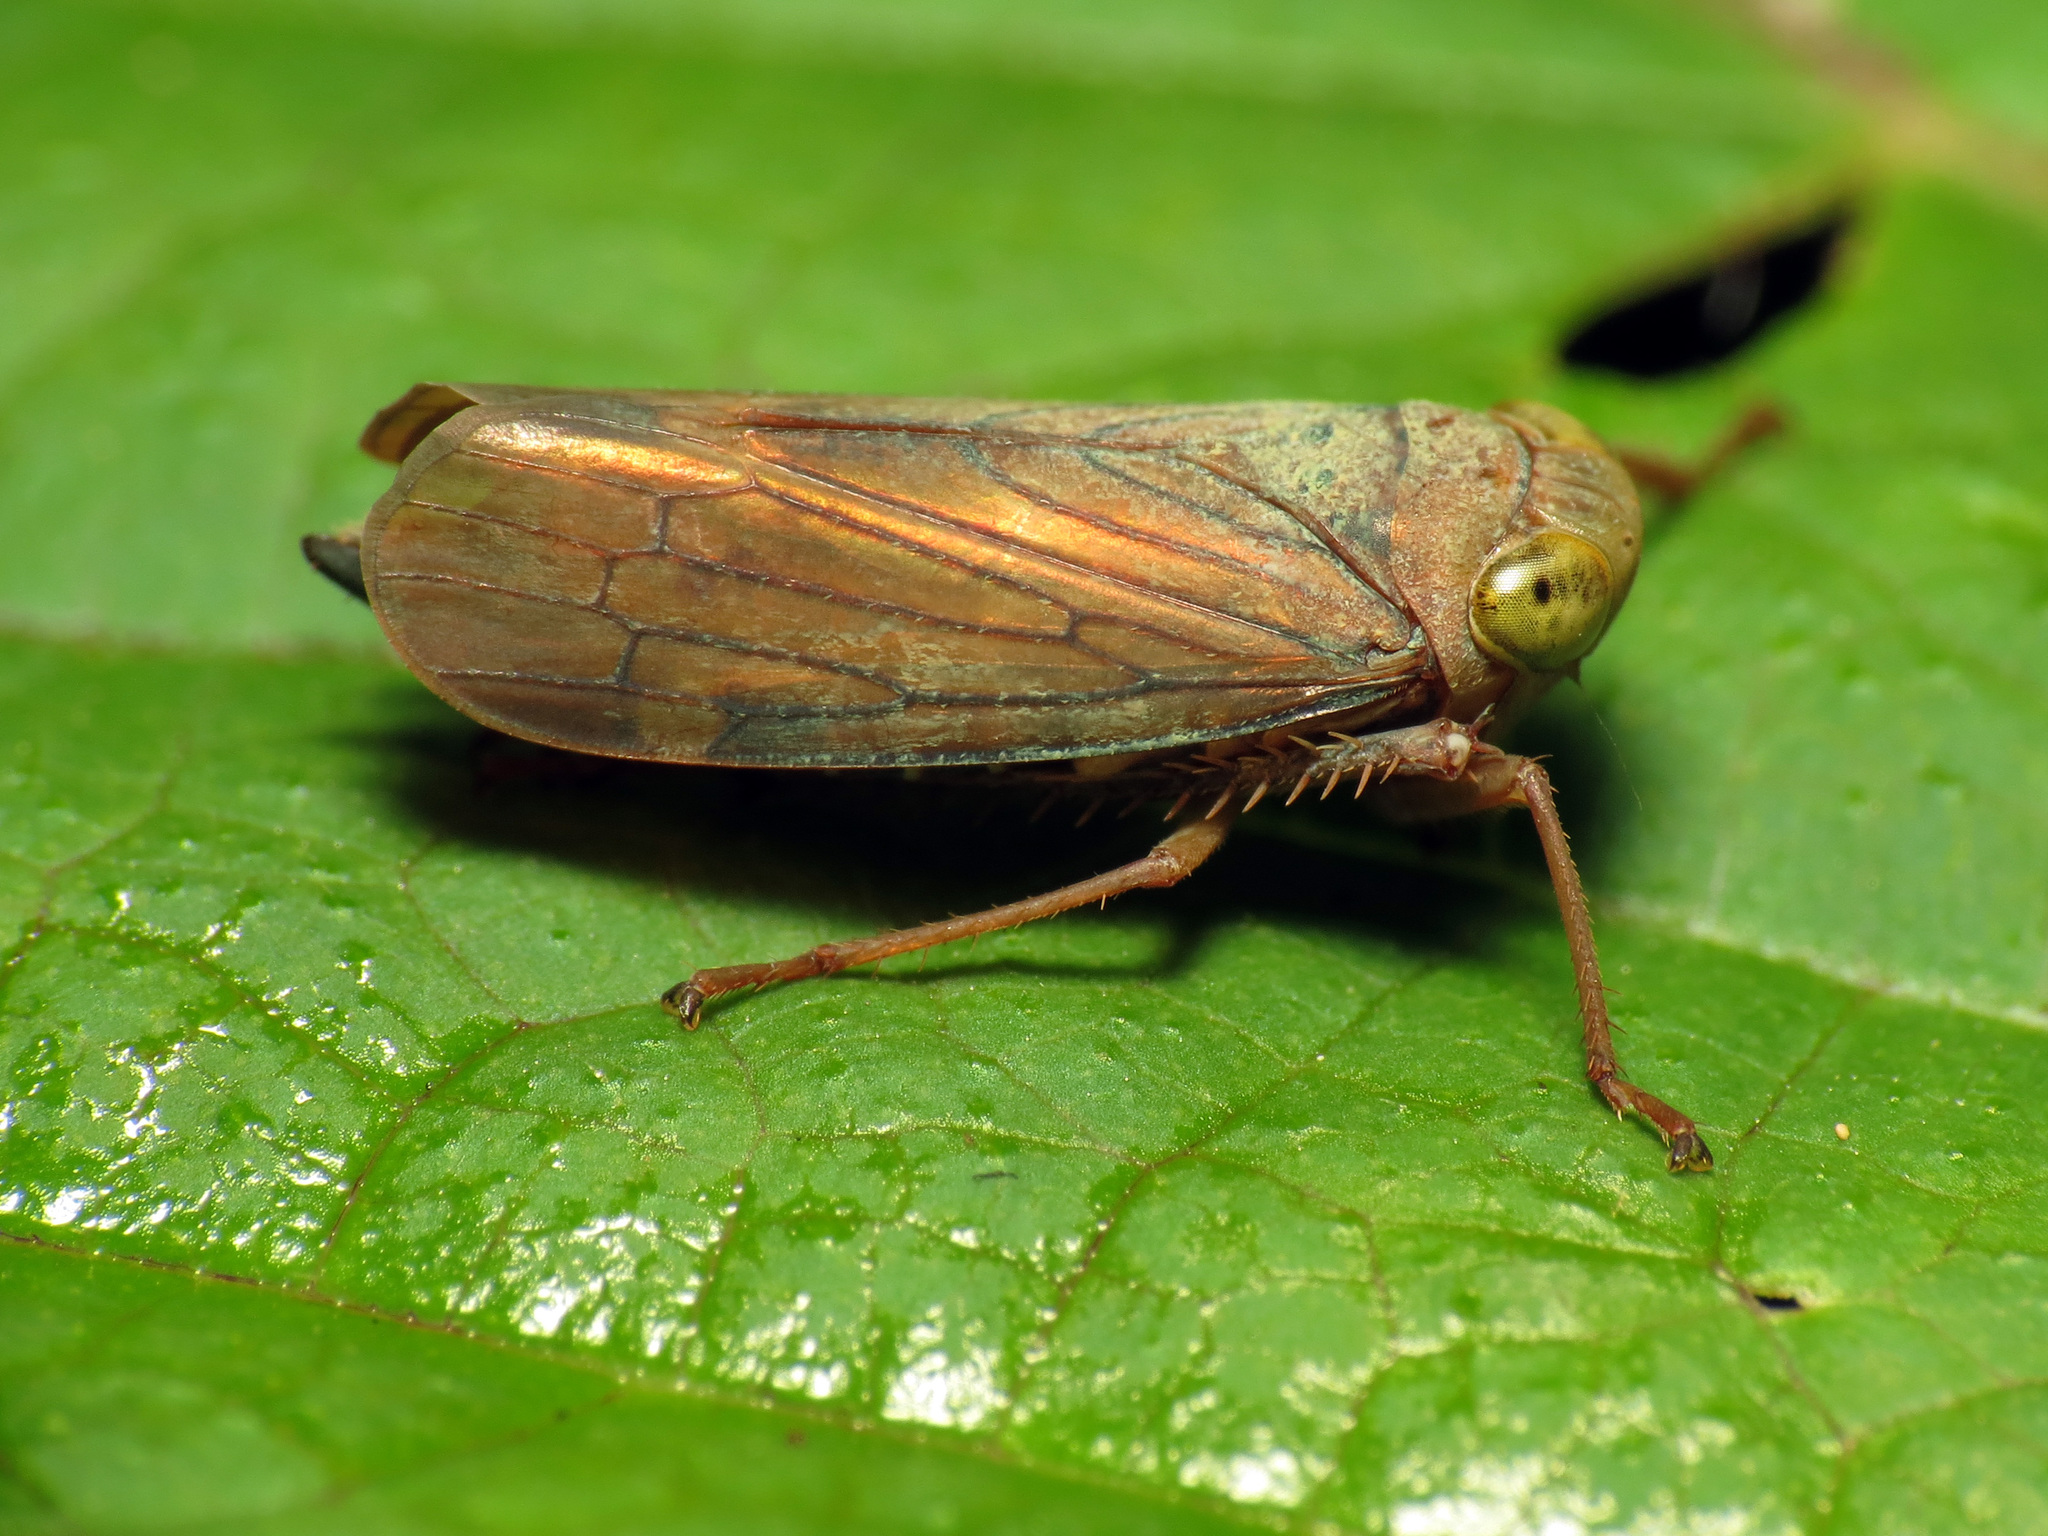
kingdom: Animalia
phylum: Arthropoda
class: Insecta
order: Hemiptera
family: Cicadellidae
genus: Jikradia
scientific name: Jikradia olitoria
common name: Coppery leafhopper
